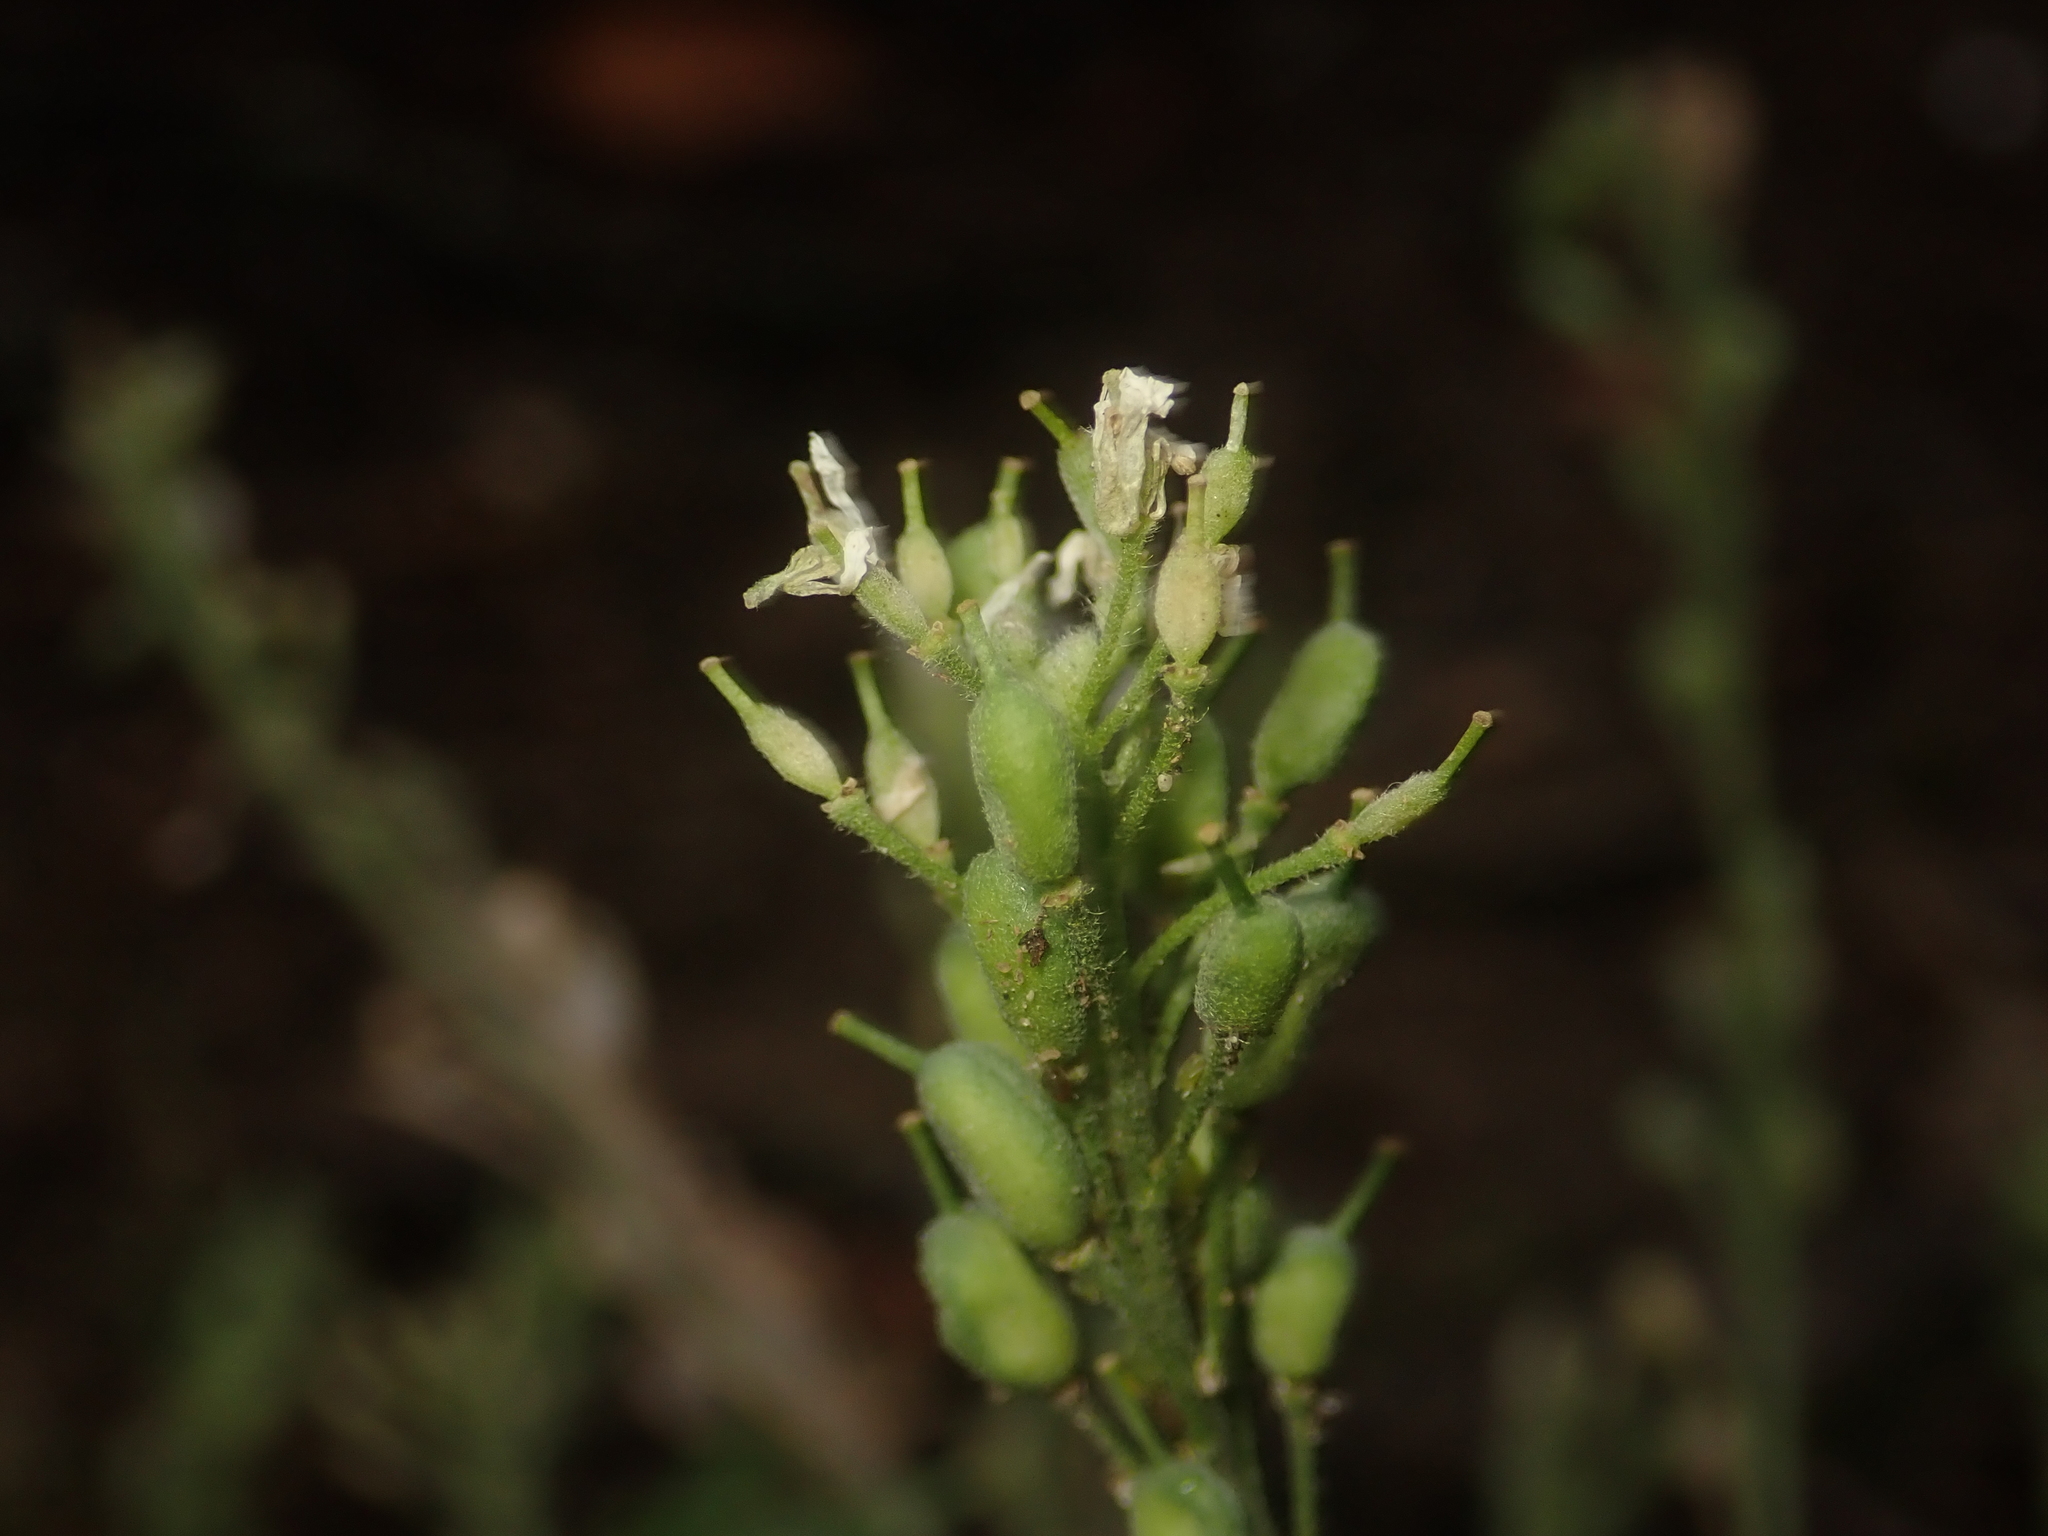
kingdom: Plantae
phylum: Tracheophyta
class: Magnoliopsida
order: Brassicales
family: Brassicaceae
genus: Berteroa
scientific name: Berteroa incana
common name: Hoary alison
